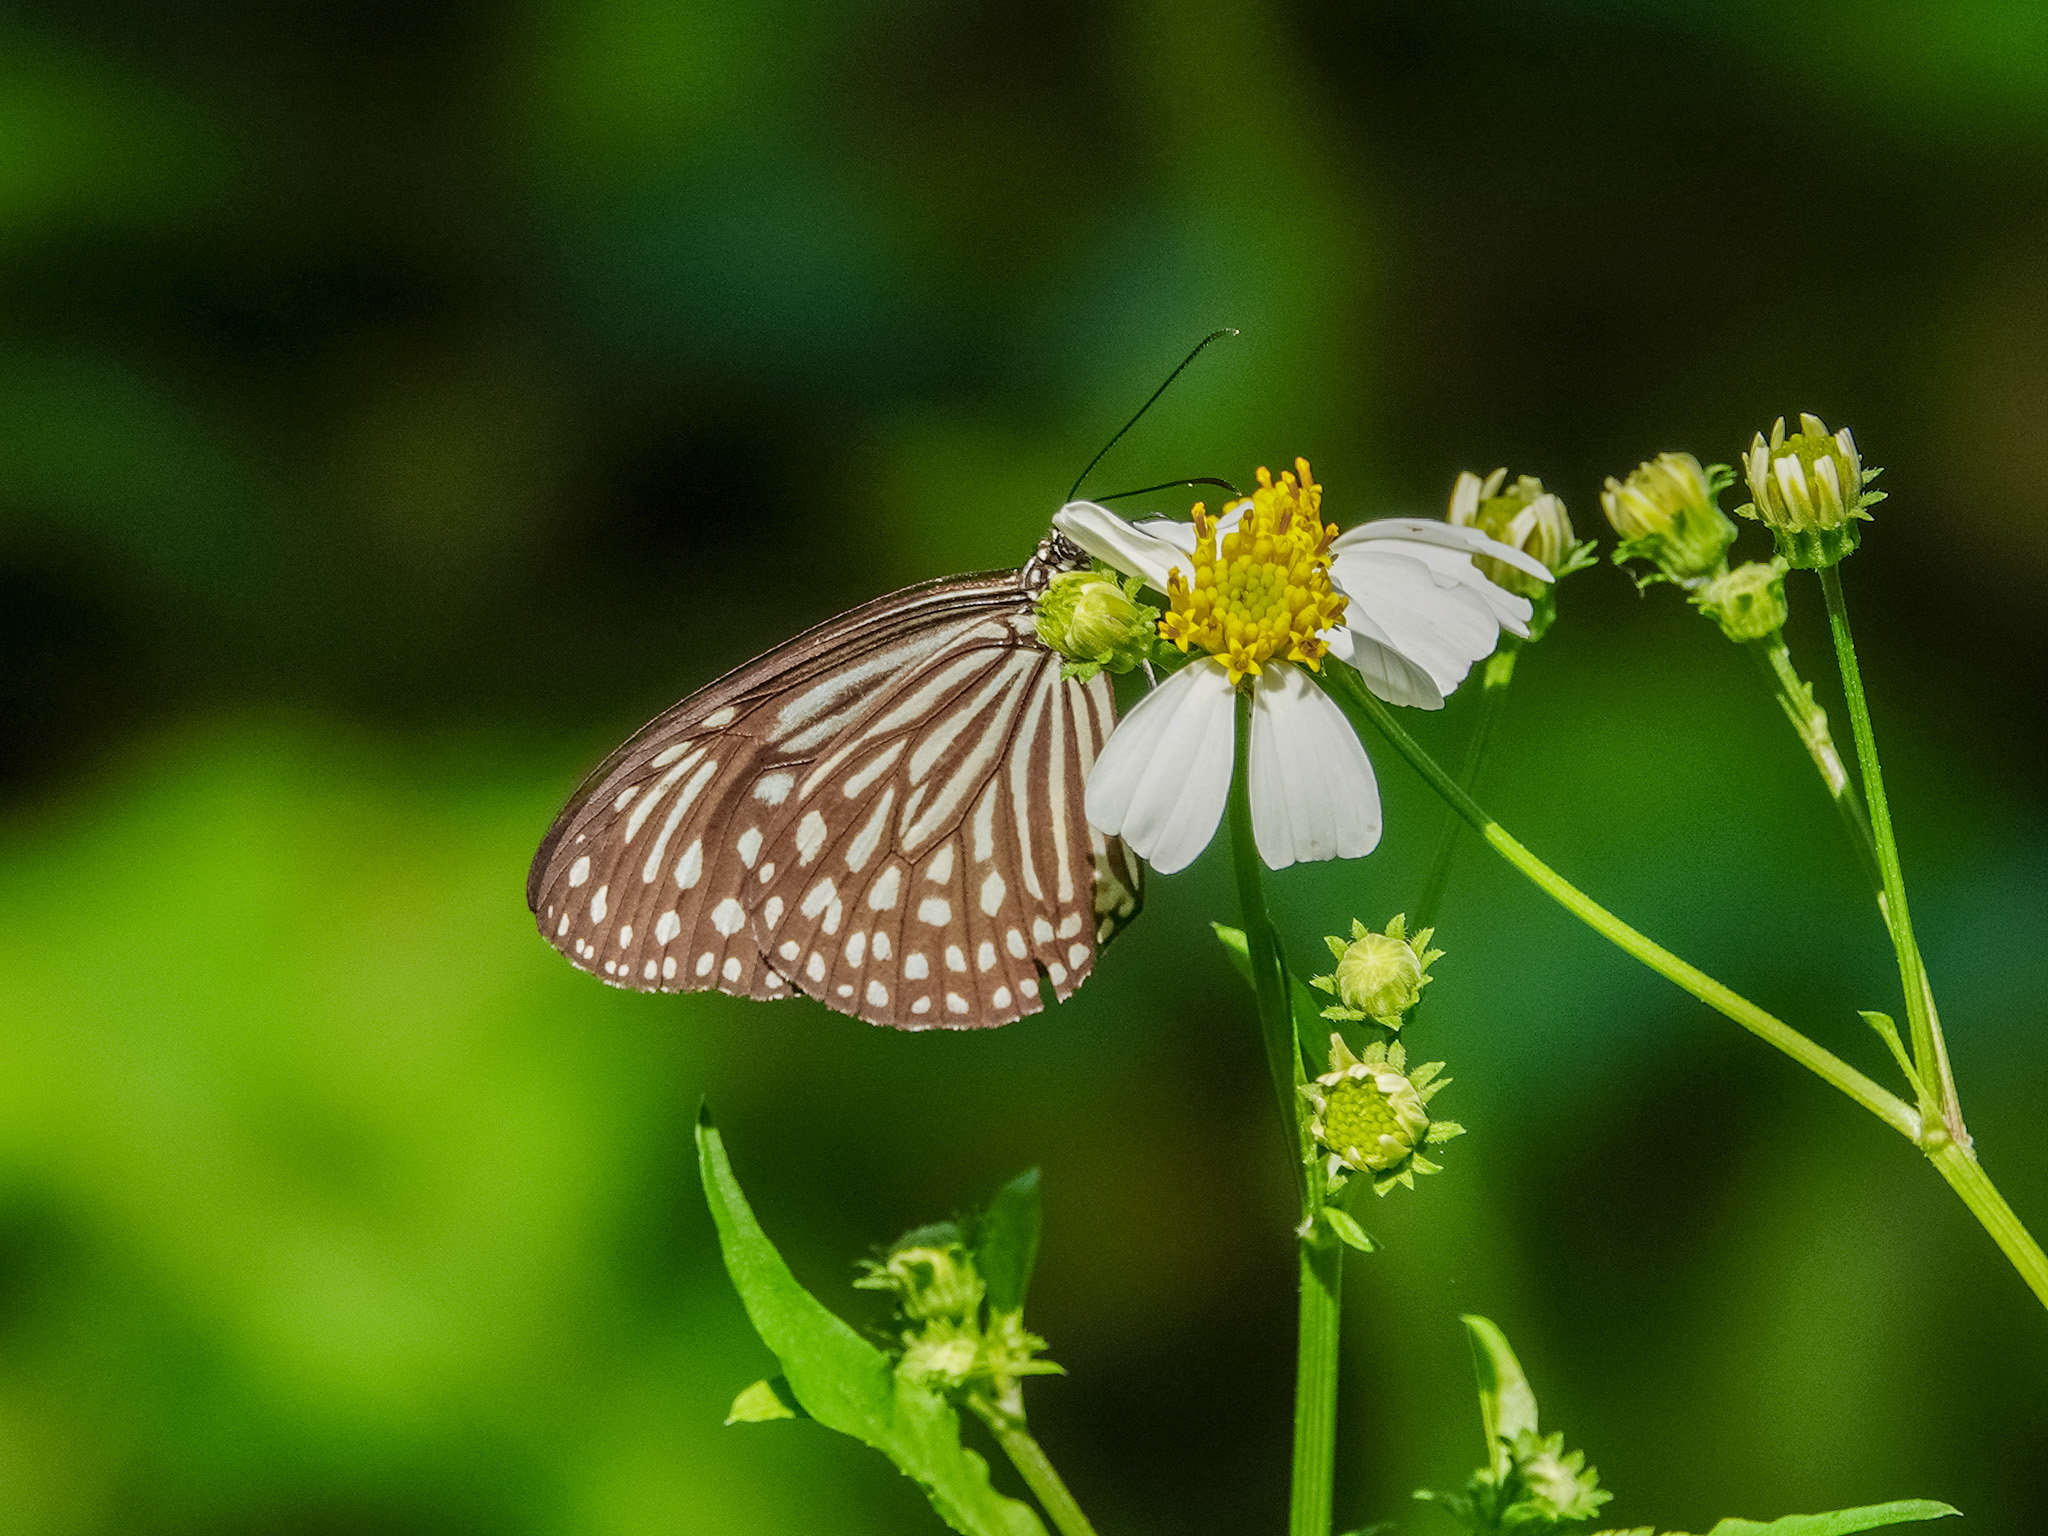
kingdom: Animalia
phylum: Arthropoda
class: Insecta
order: Lepidoptera
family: Nymphalidae
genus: Parantica
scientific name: Parantica agleoides
